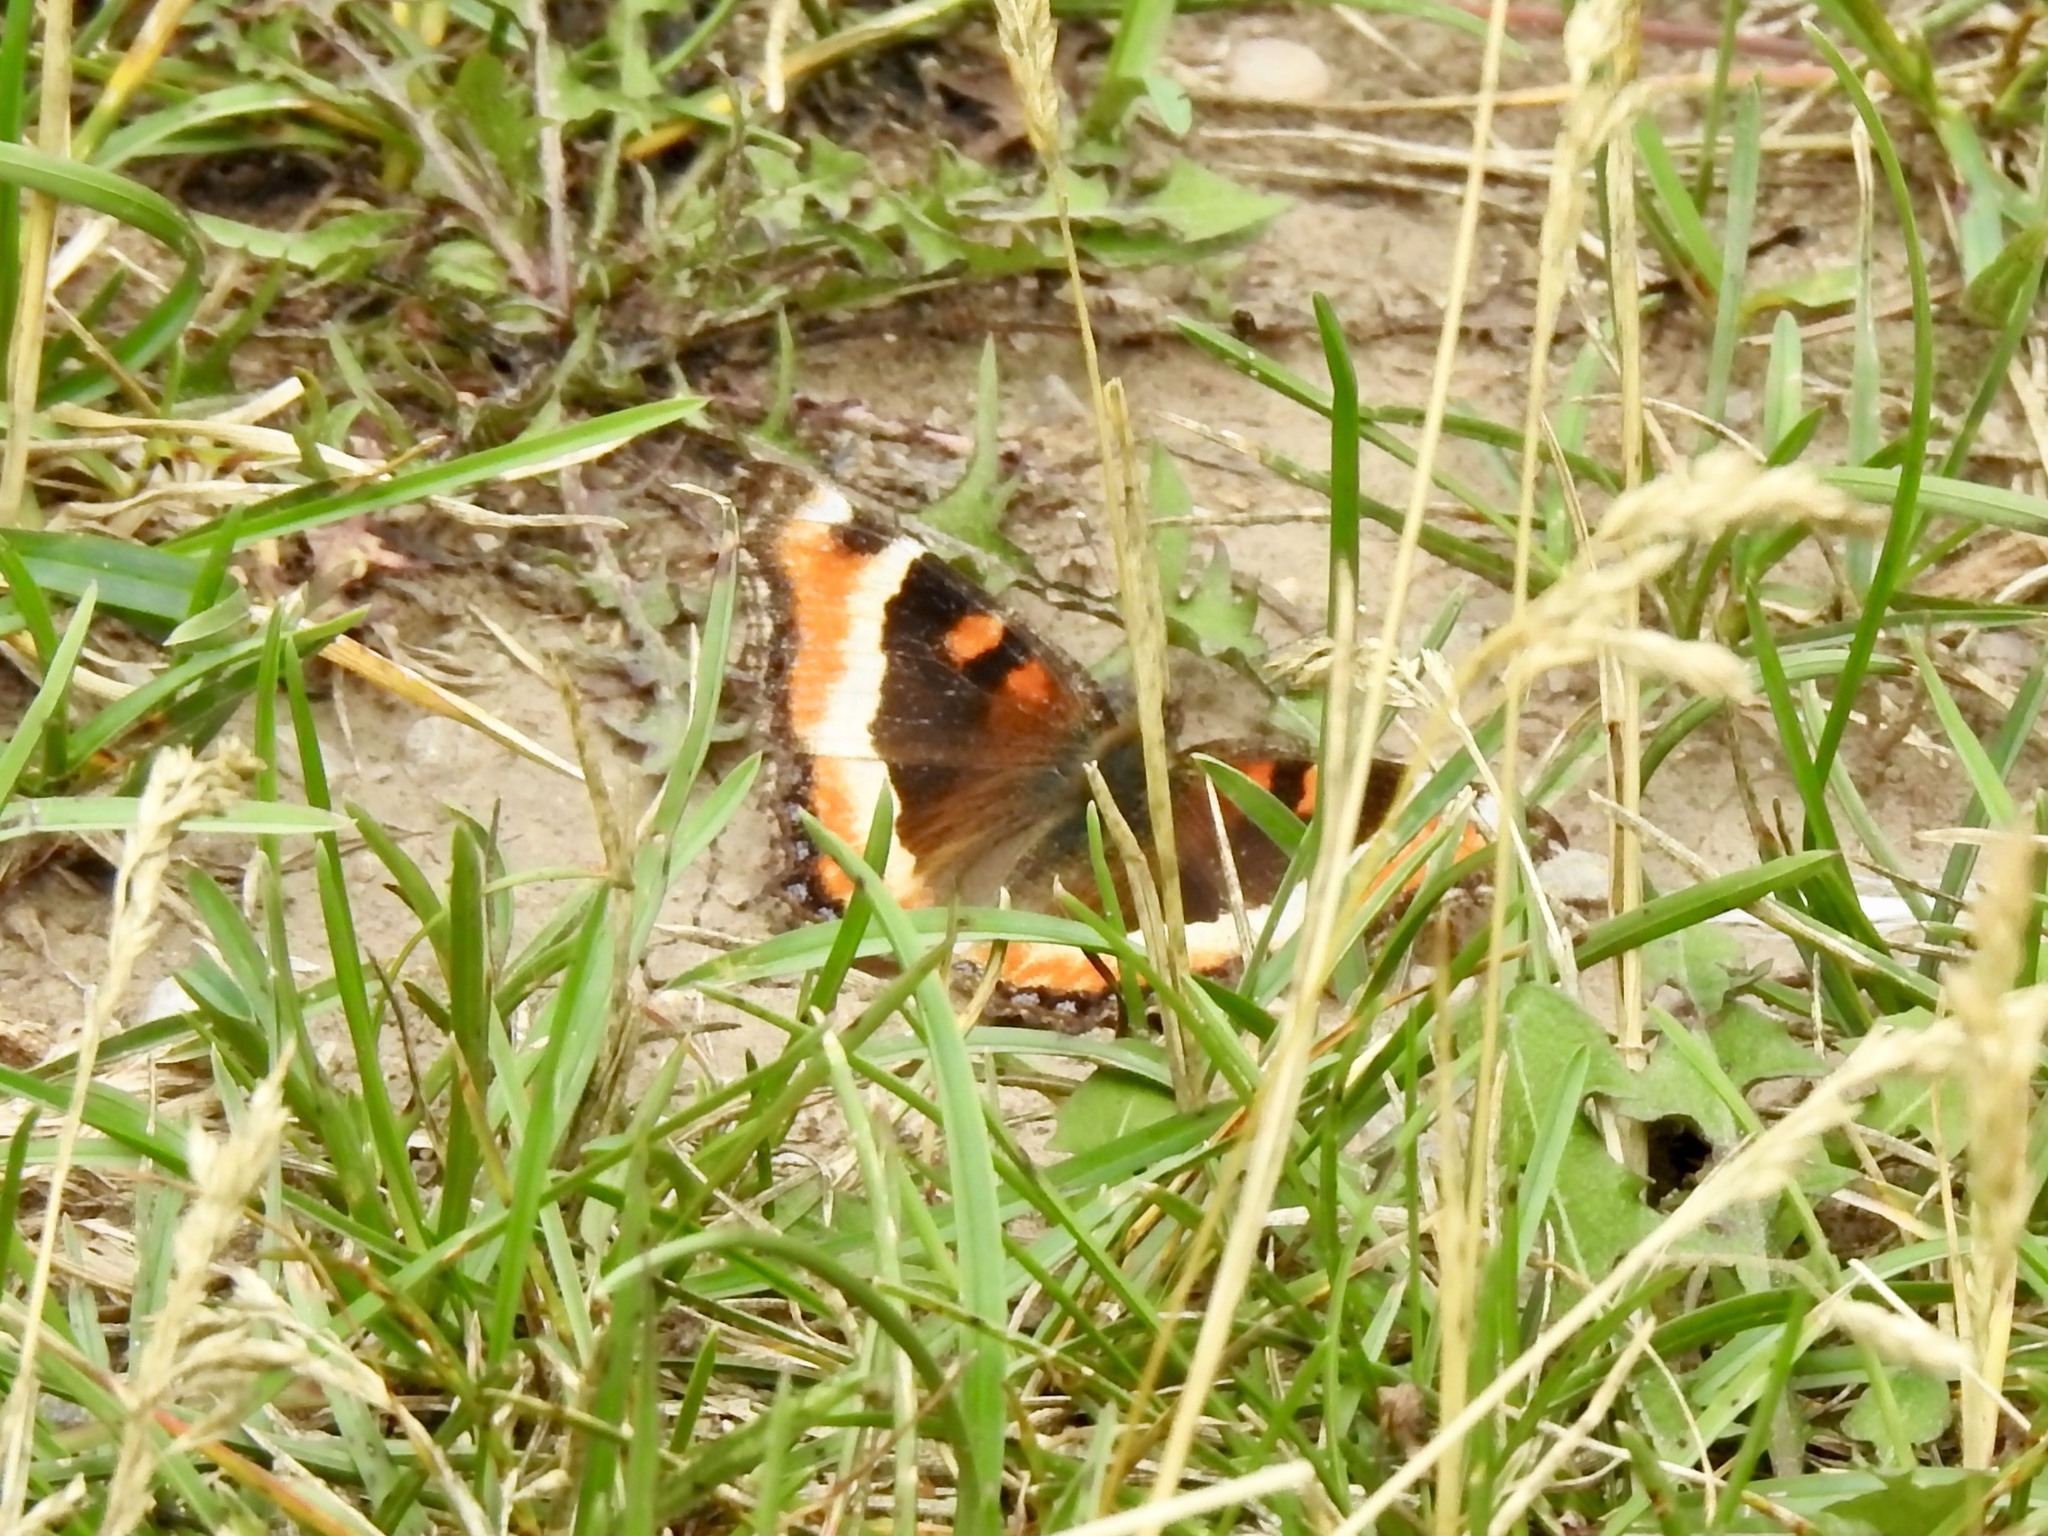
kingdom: Animalia
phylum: Arthropoda
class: Insecta
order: Lepidoptera
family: Nymphalidae
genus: Aglais
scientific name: Aglais milberti
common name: Milbert's tortoiseshell
